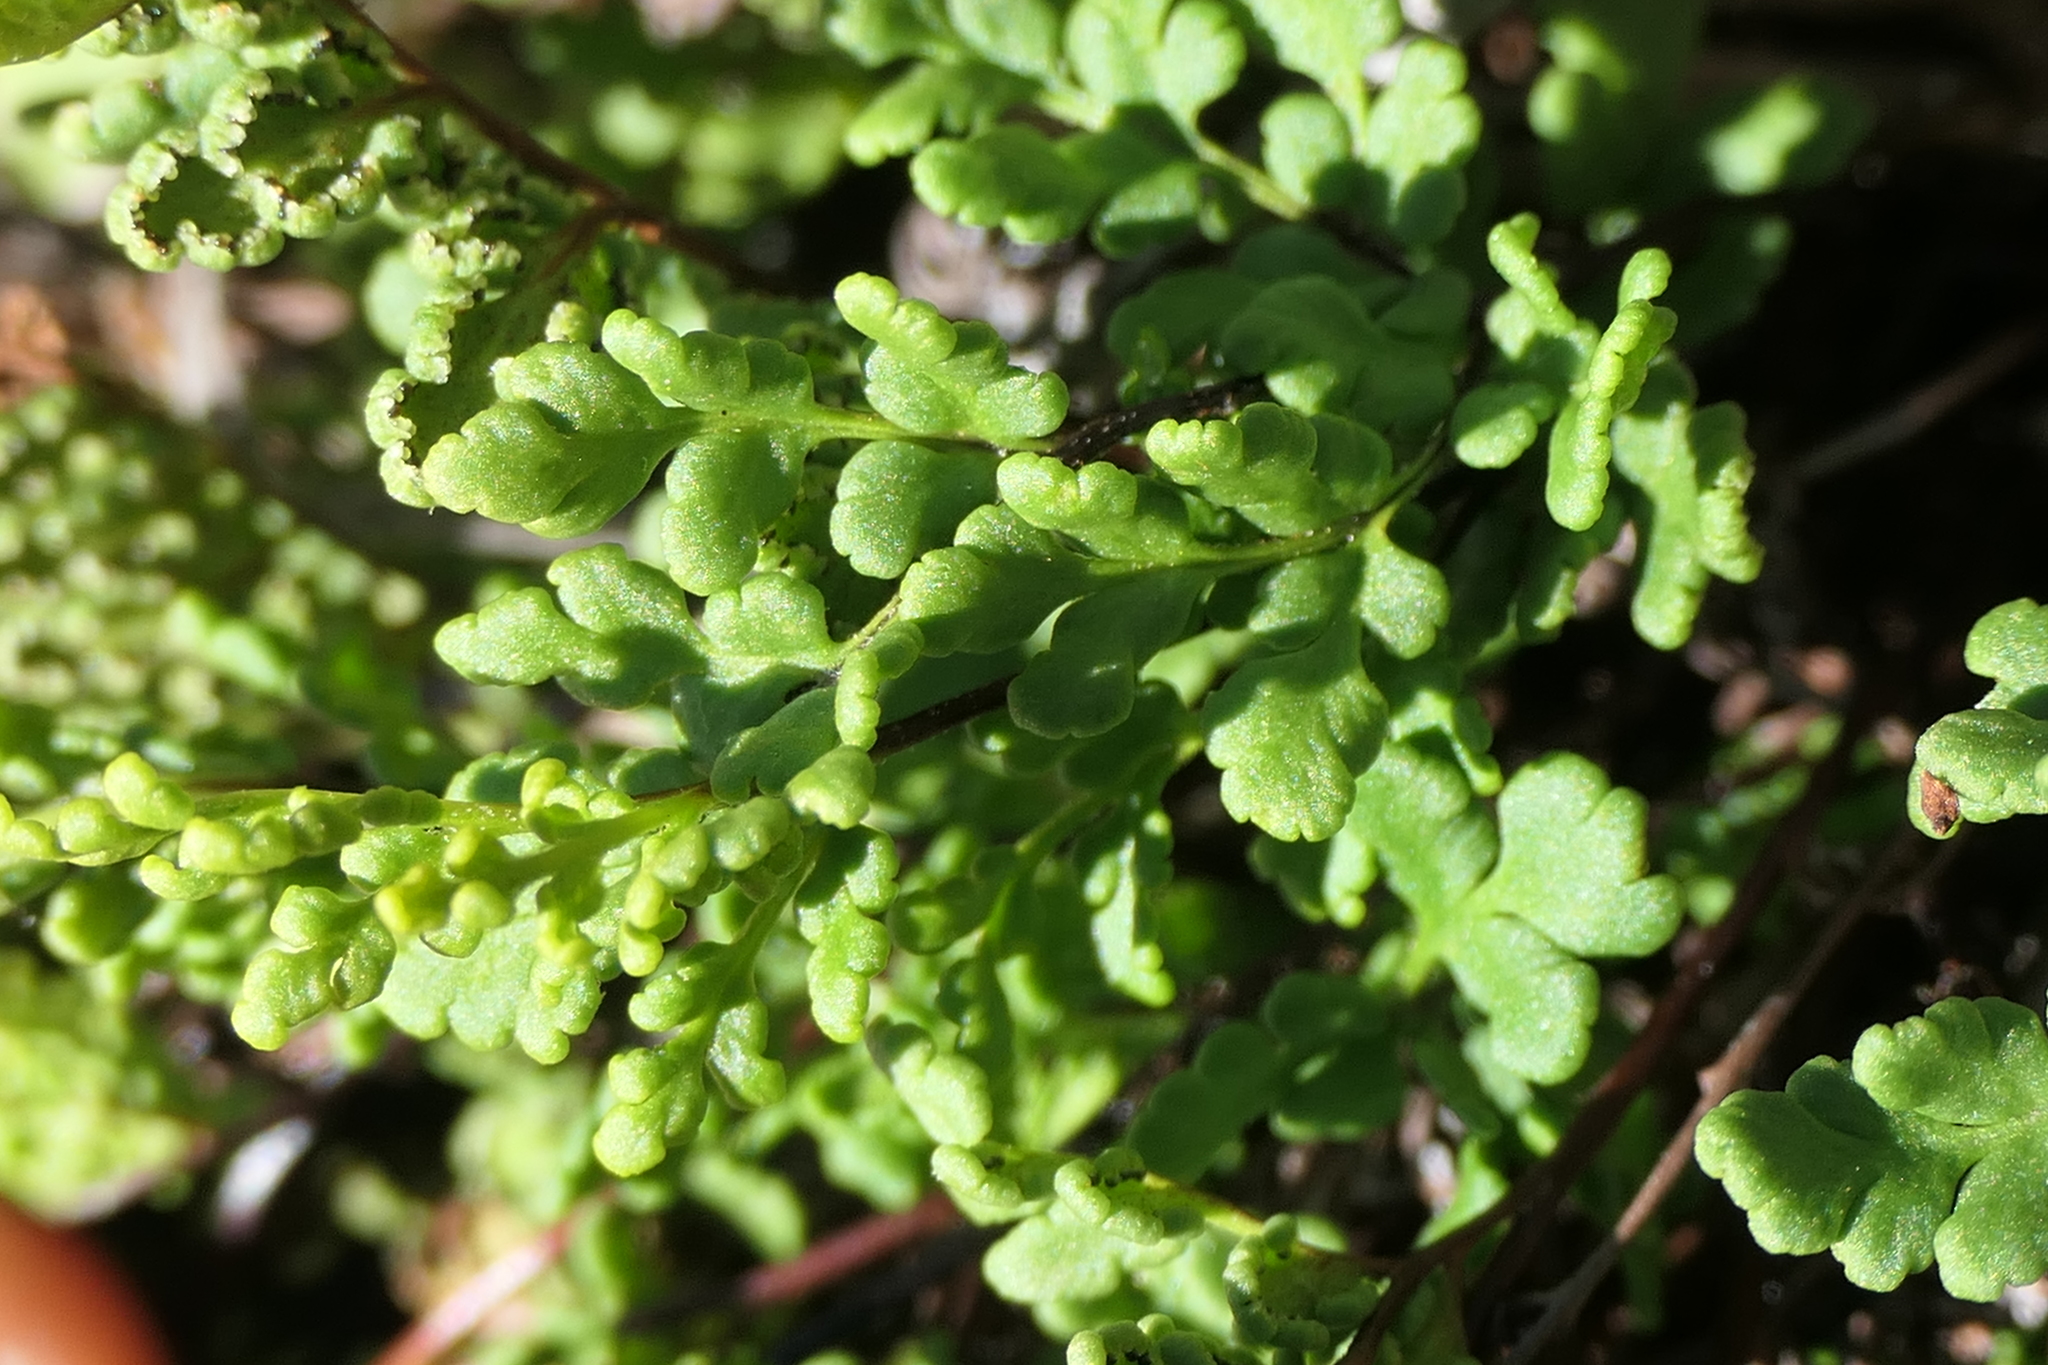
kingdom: Plantae
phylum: Tracheophyta
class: Polypodiopsida
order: Polypodiales
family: Pteridaceae
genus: Oeosporangium
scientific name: Oeosporangium tinaei
